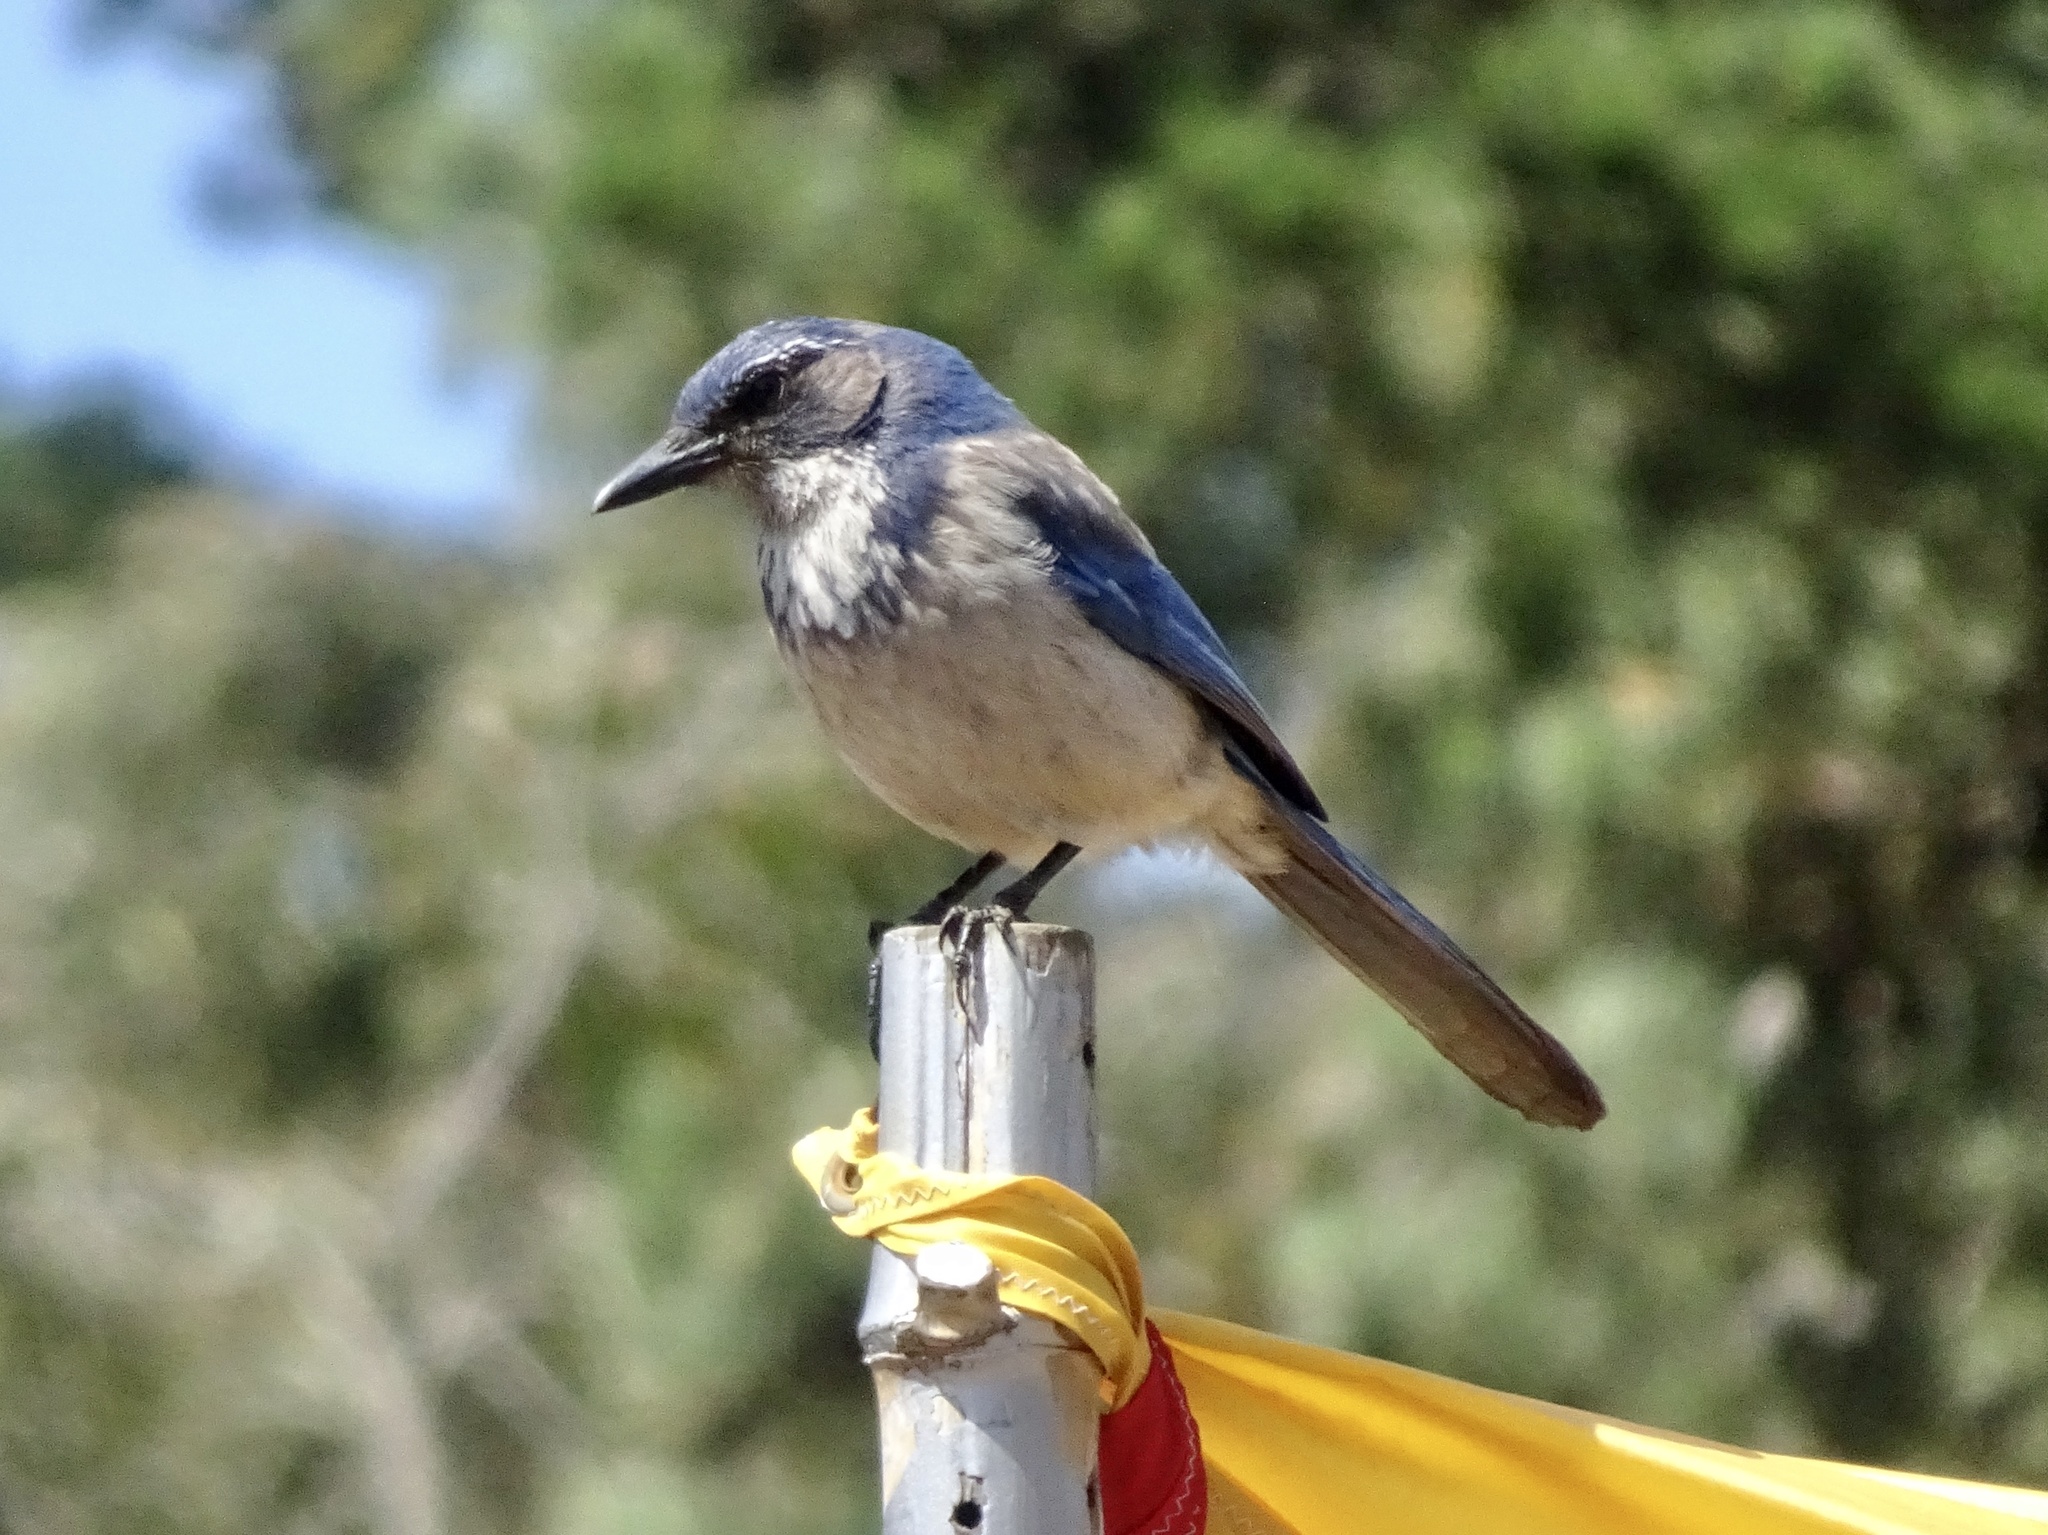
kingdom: Animalia
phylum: Chordata
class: Aves
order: Passeriformes
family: Corvidae
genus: Aphelocoma
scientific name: Aphelocoma californica
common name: California scrub-jay
